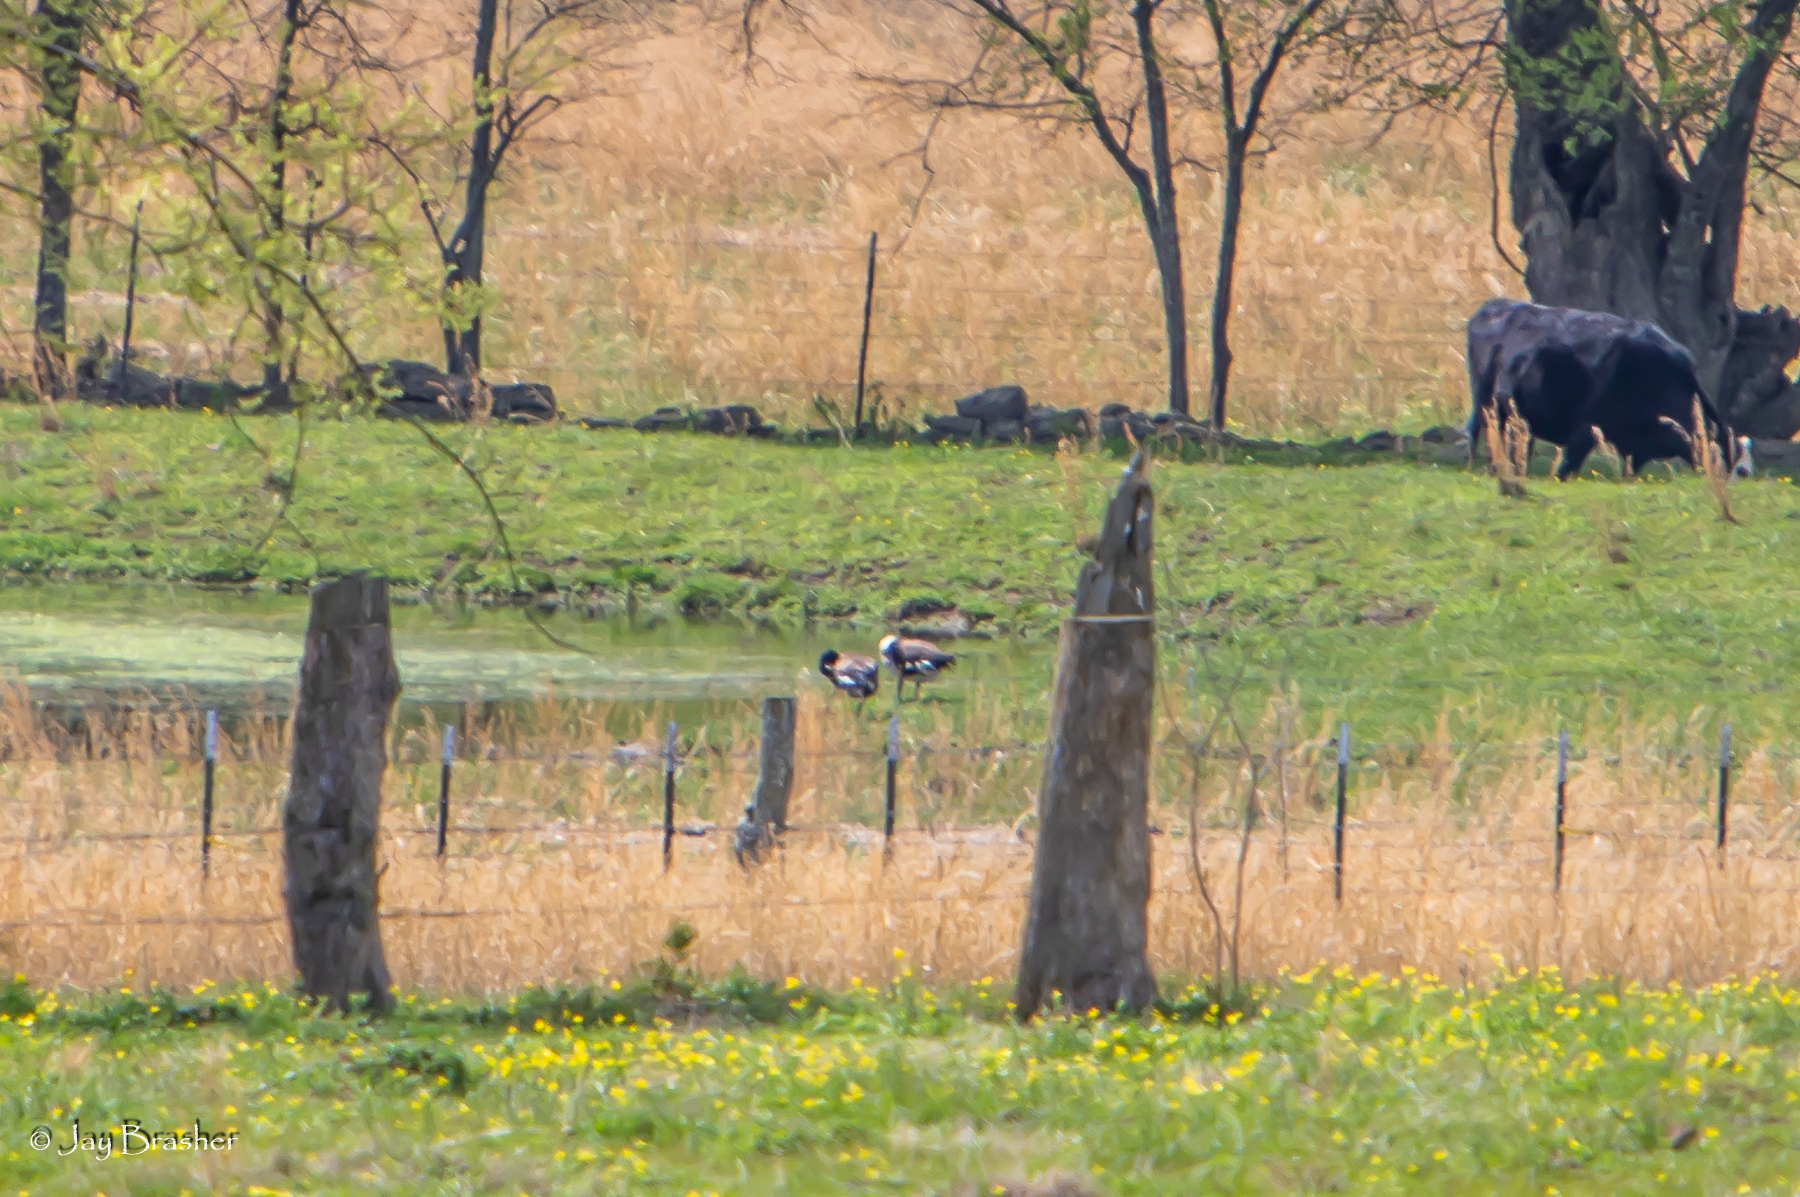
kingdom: Animalia
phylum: Chordata
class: Aves
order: Anseriformes
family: Anatidae
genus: Branta
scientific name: Branta canadensis
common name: Canada goose
